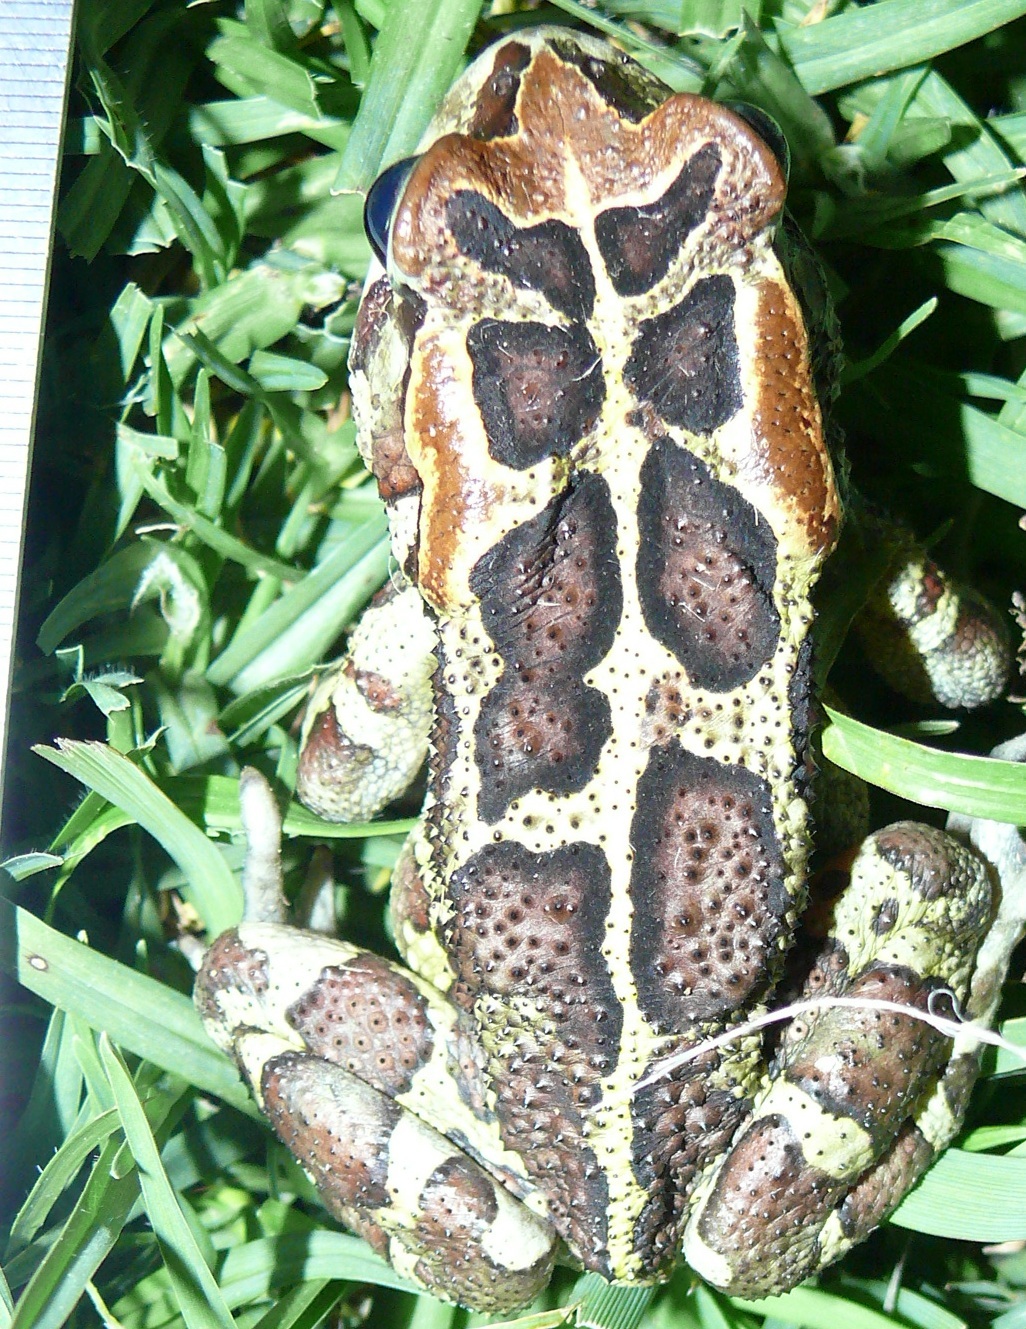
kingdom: Animalia
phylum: Chordata
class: Amphibia
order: Anura
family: Bufonidae
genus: Sclerophrys
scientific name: Sclerophrys pantherina
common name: Panther toad
